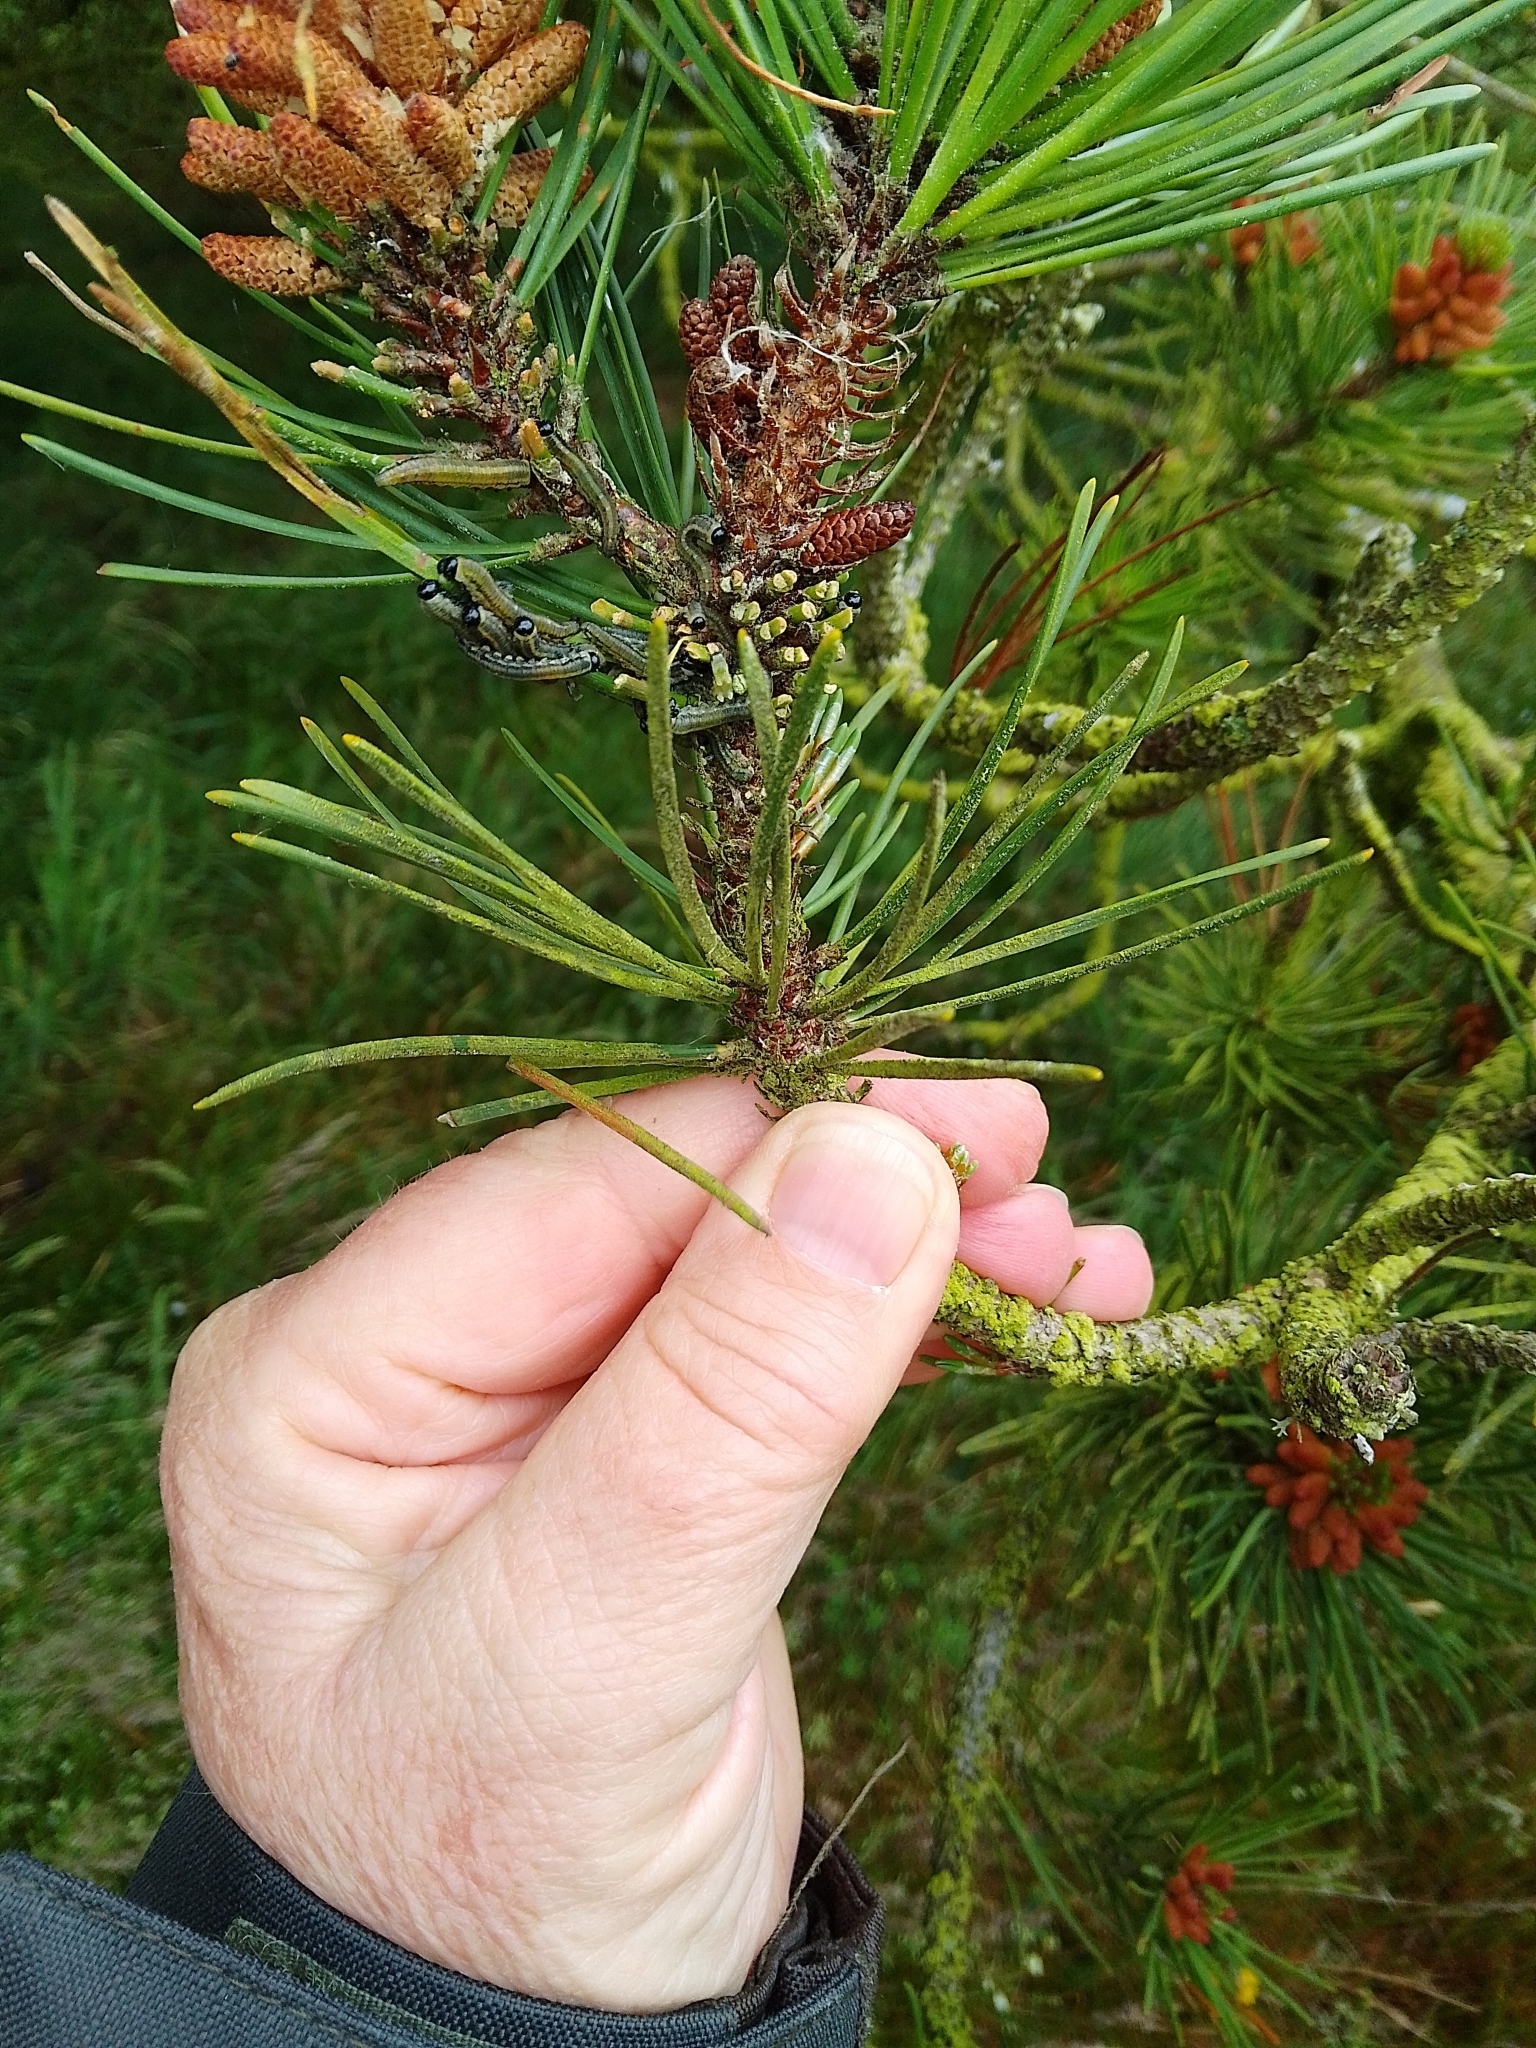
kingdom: Animalia
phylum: Arthropoda
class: Insecta
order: Hymenoptera
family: Diprionidae
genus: Neodiprion
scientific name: Neodiprion sertifer
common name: European pine sawfly
